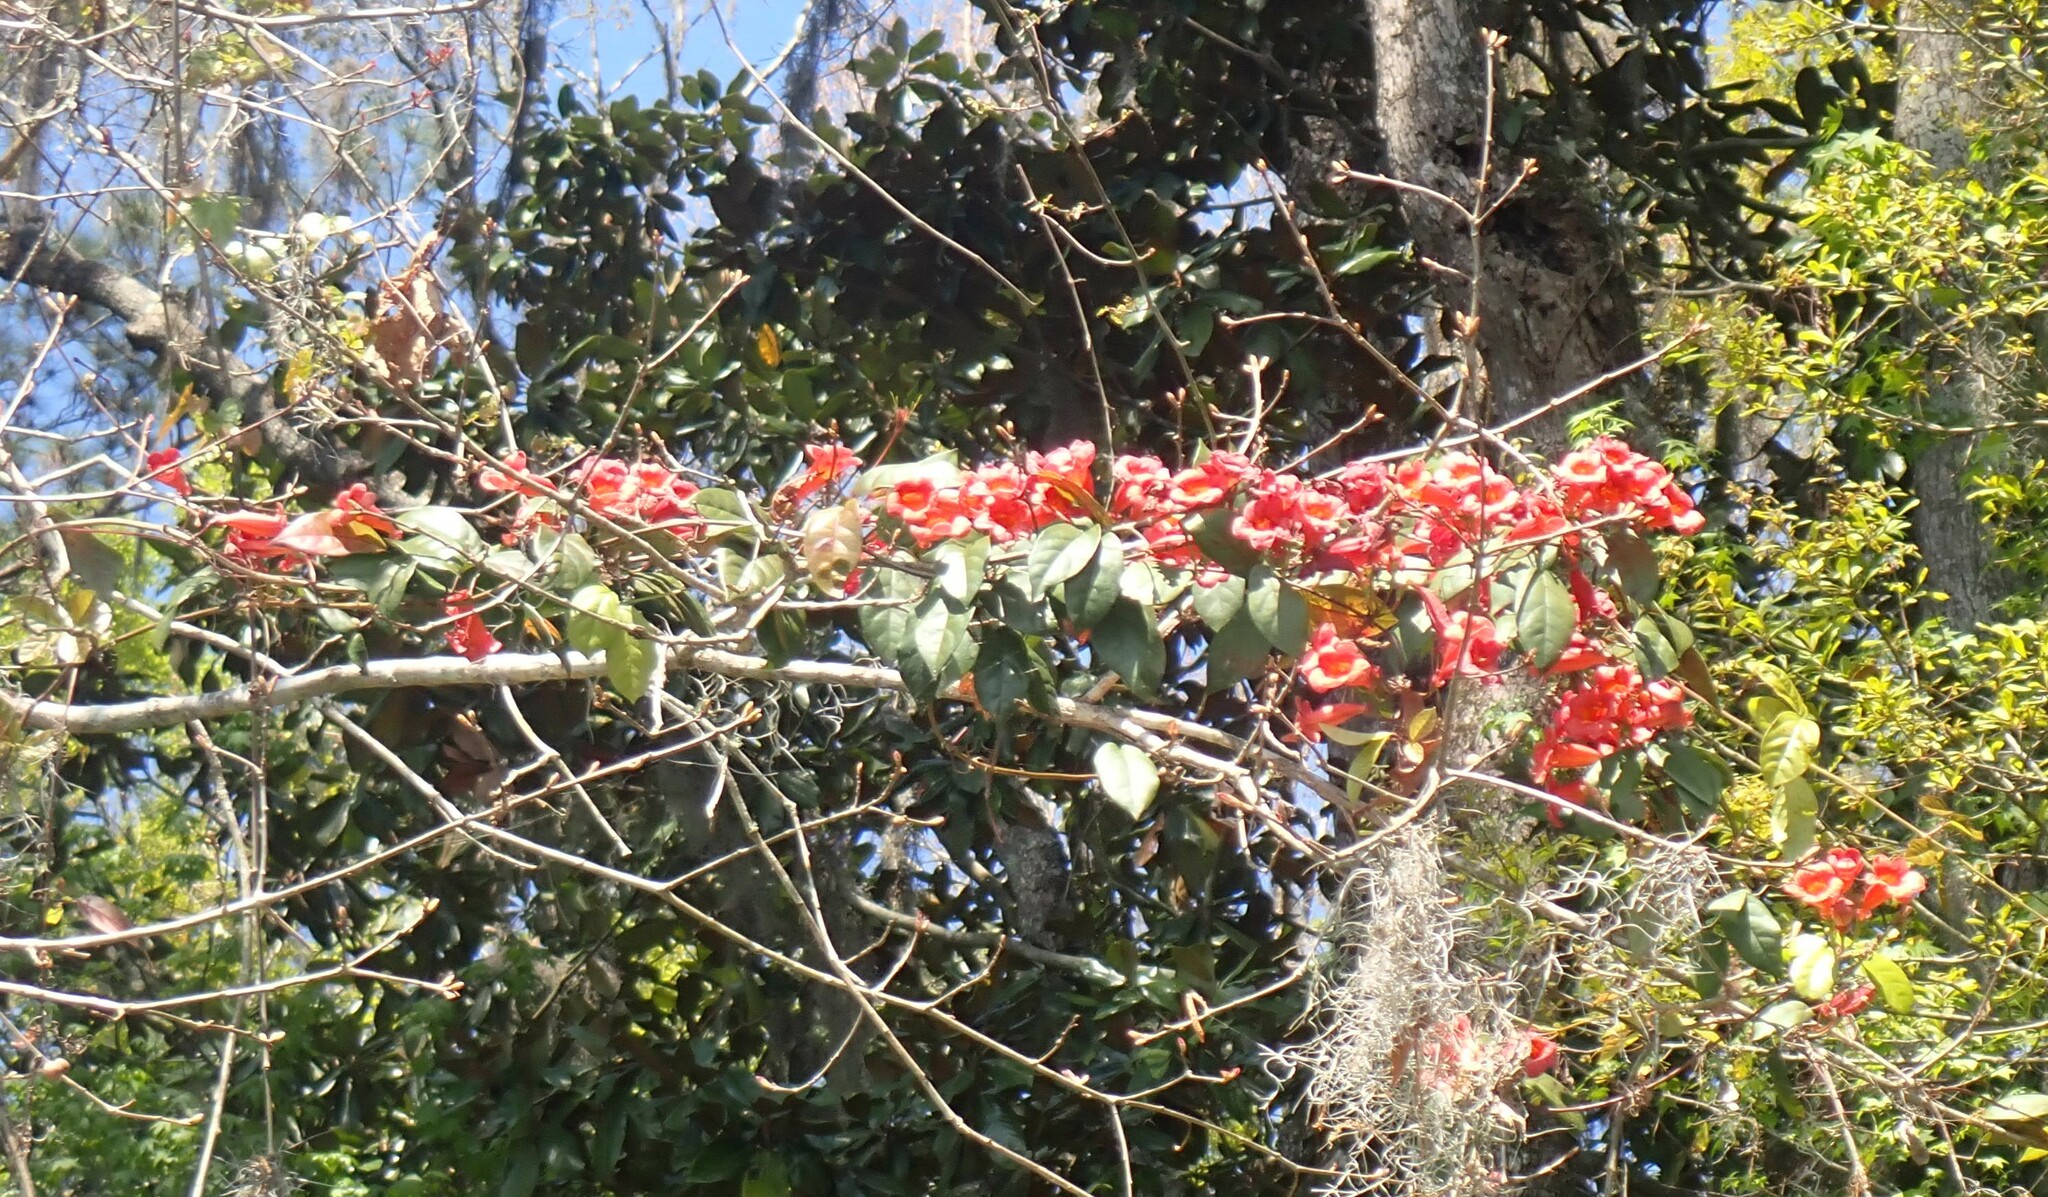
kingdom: Plantae
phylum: Tracheophyta
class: Magnoliopsida
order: Lamiales
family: Bignoniaceae
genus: Bignonia
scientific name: Bignonia capreolata
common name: Crossvine
